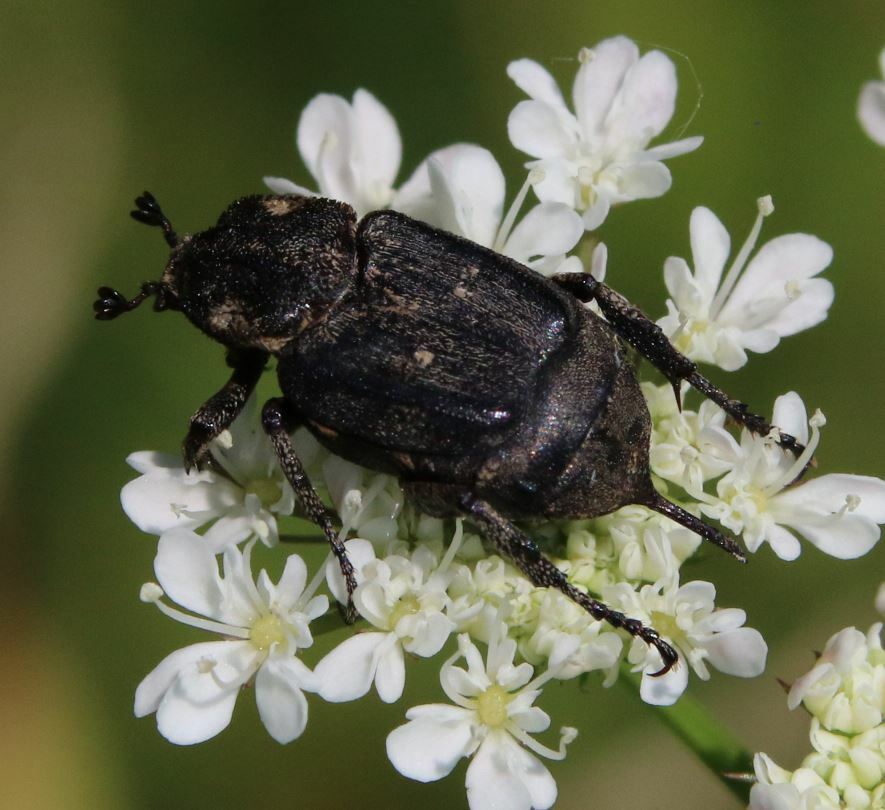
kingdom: Animalia
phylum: Arthropoda
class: Insecta
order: Coleoptera
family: Scarabaeidae
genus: Valgus
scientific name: Valgus hemipterus
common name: Bug flower chafer
